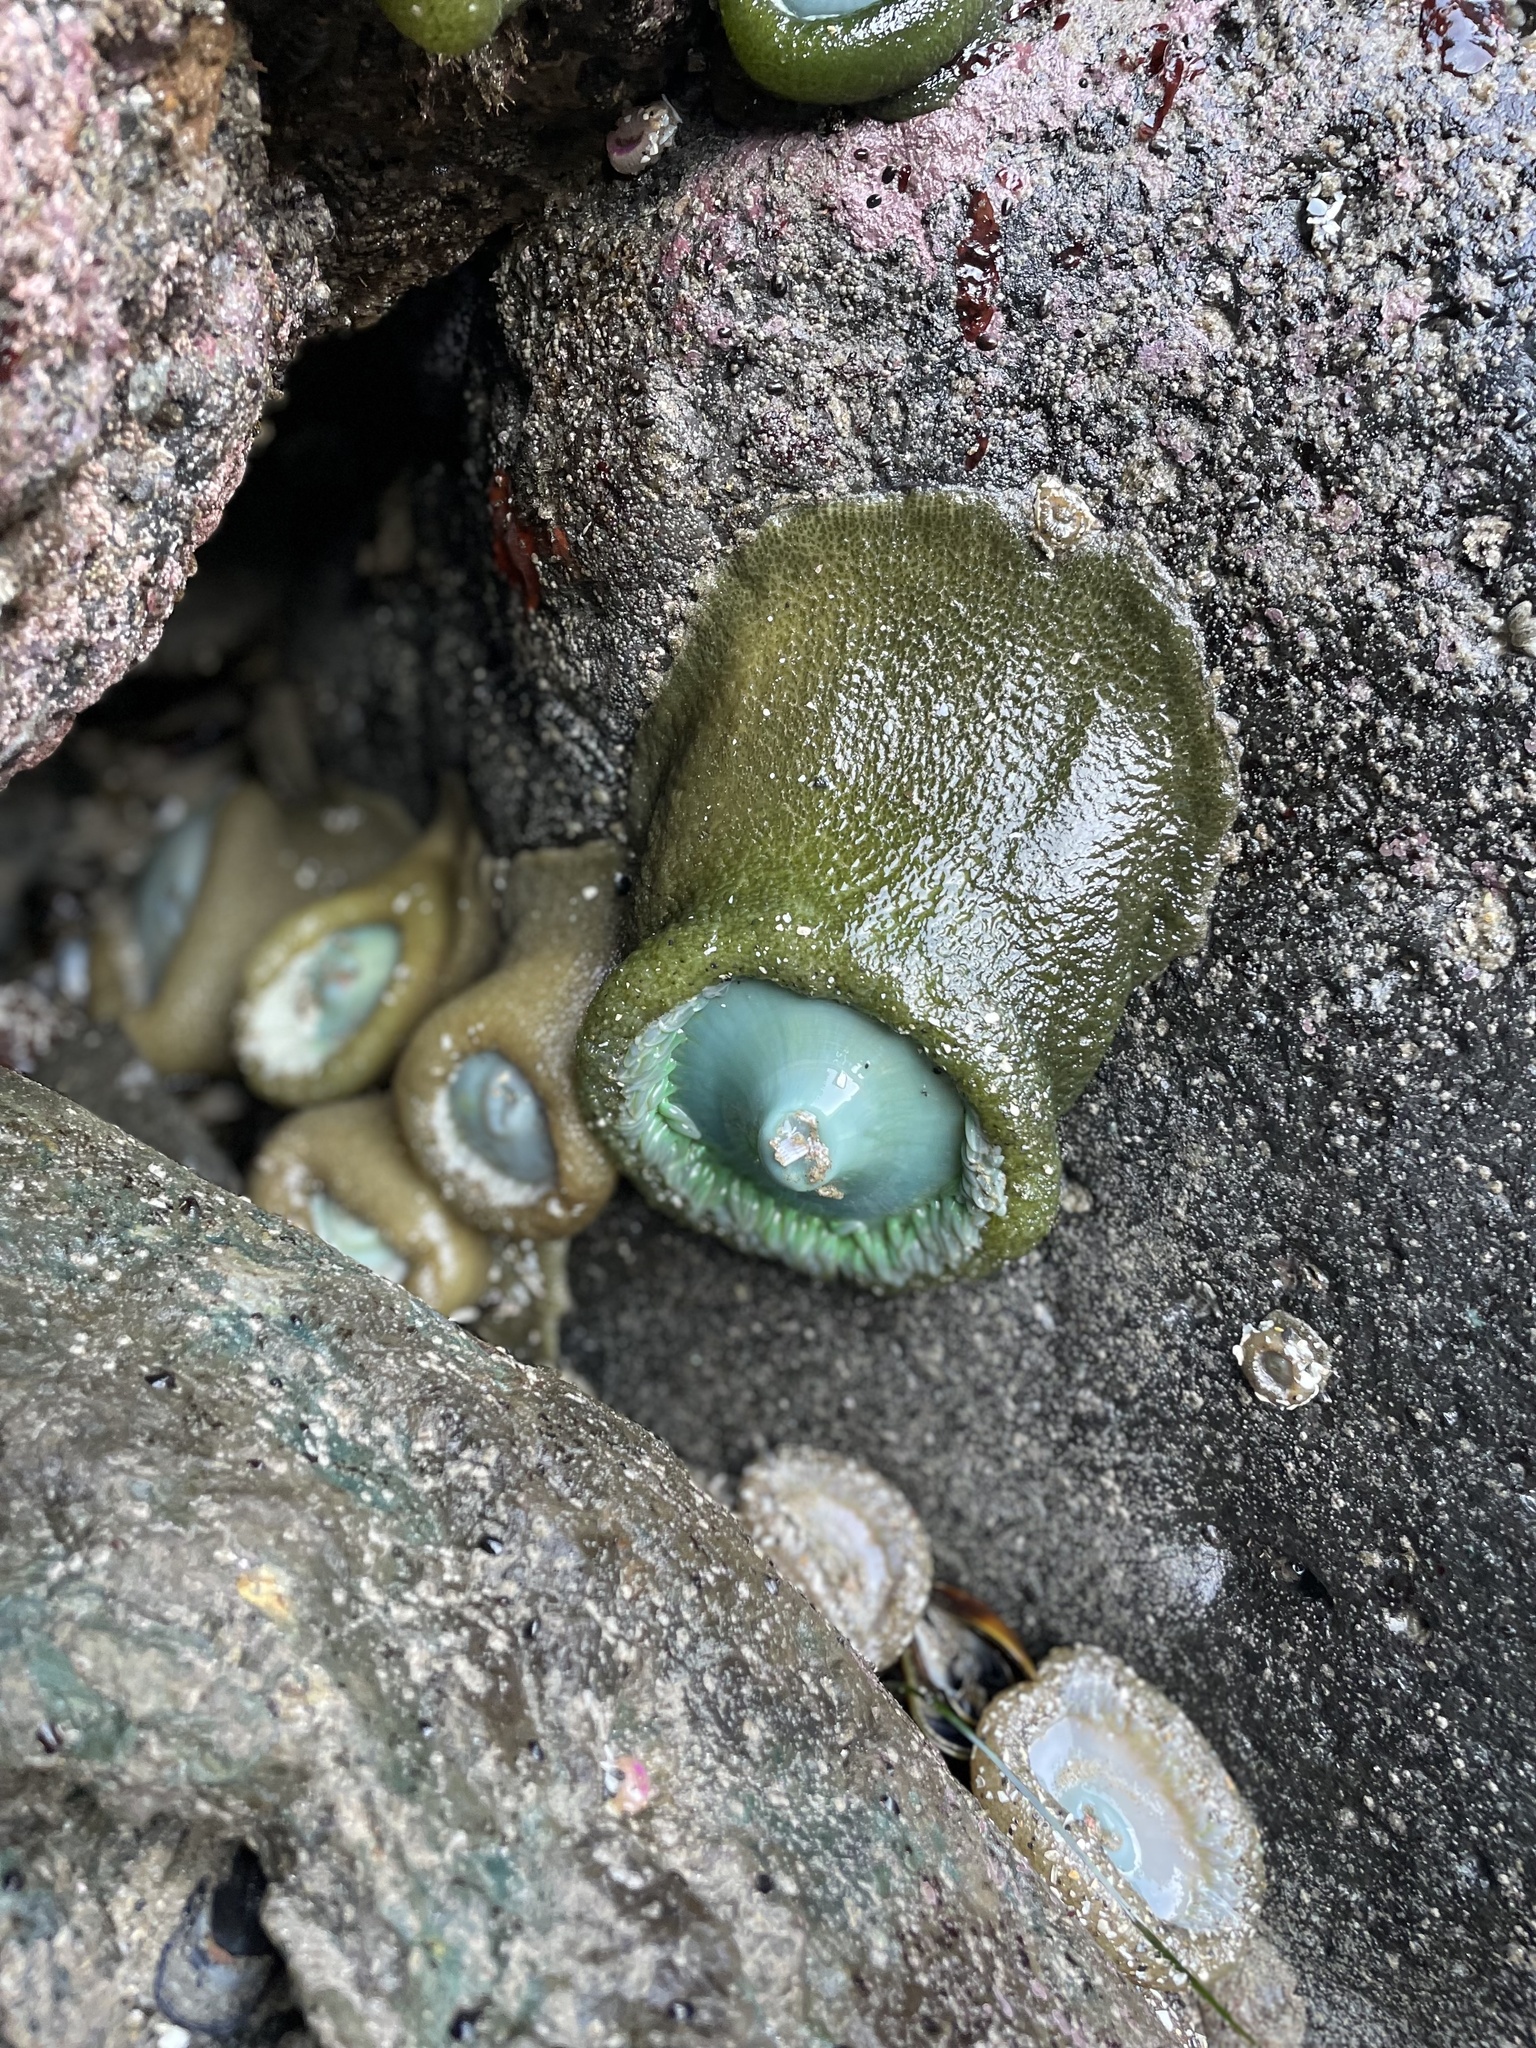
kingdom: Animalia
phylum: Cnidaria
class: Anthozoa
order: Actiniaria
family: Actiniidae
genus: Anthopleura
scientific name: Anthopleura xanthogrammica
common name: Giant green anemone
